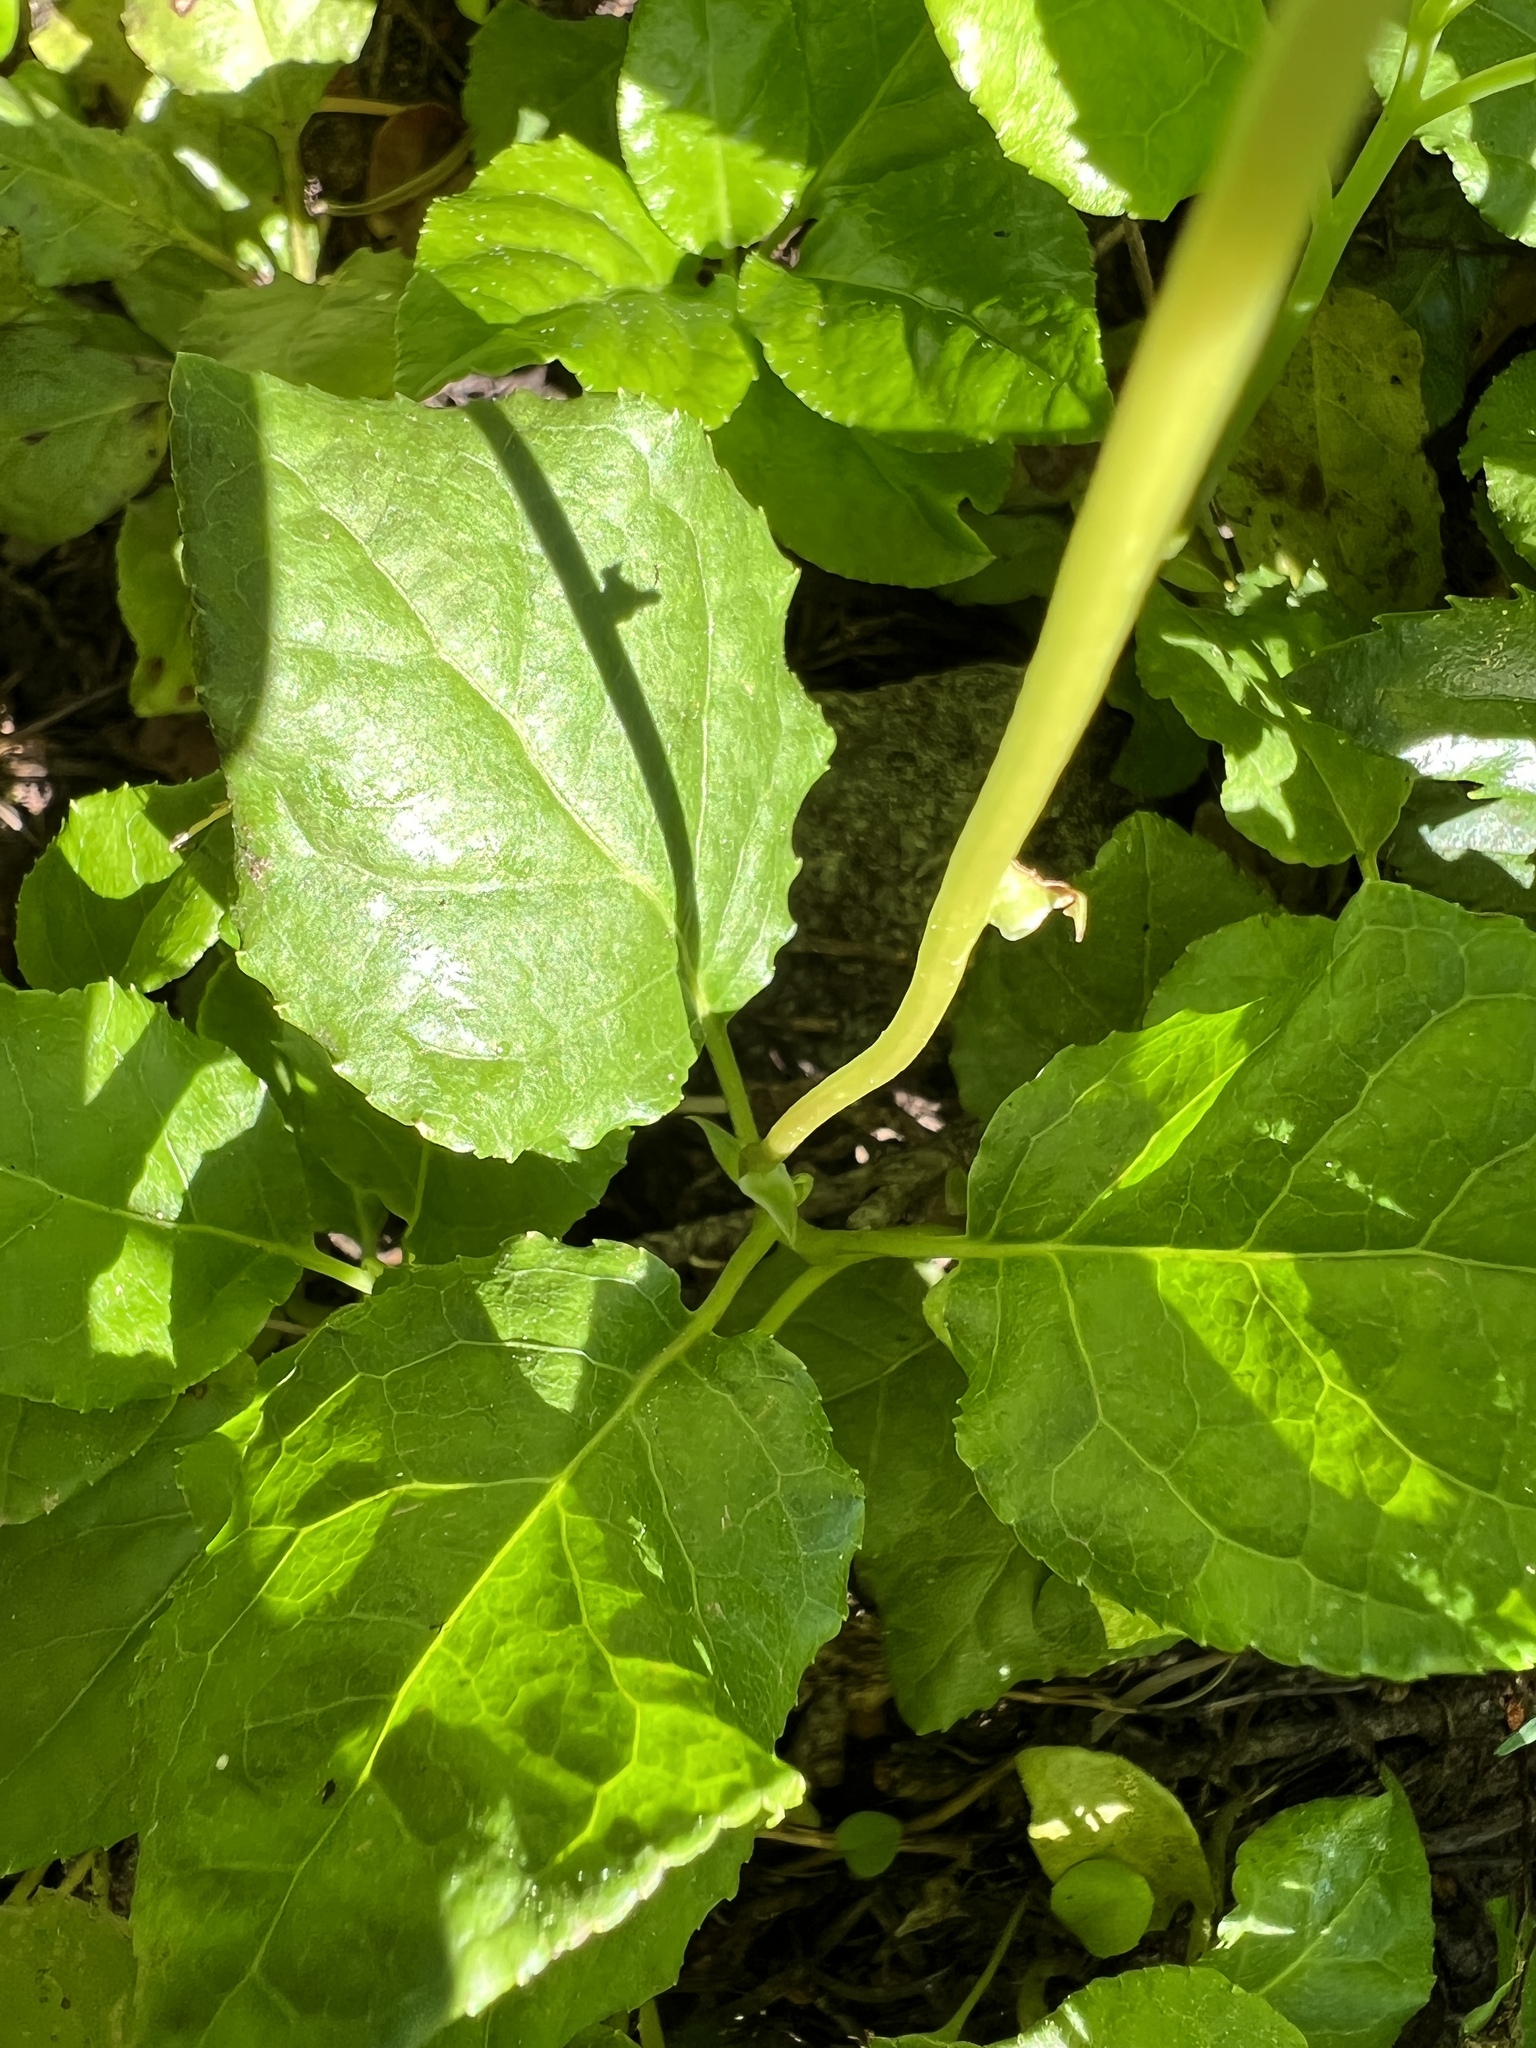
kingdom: Plantae
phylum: Tracheophyta
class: Magnoliopsida
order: Ericales
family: Ericaceae
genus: Orthilia
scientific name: Orthilia secunda
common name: One-sided orthilia
